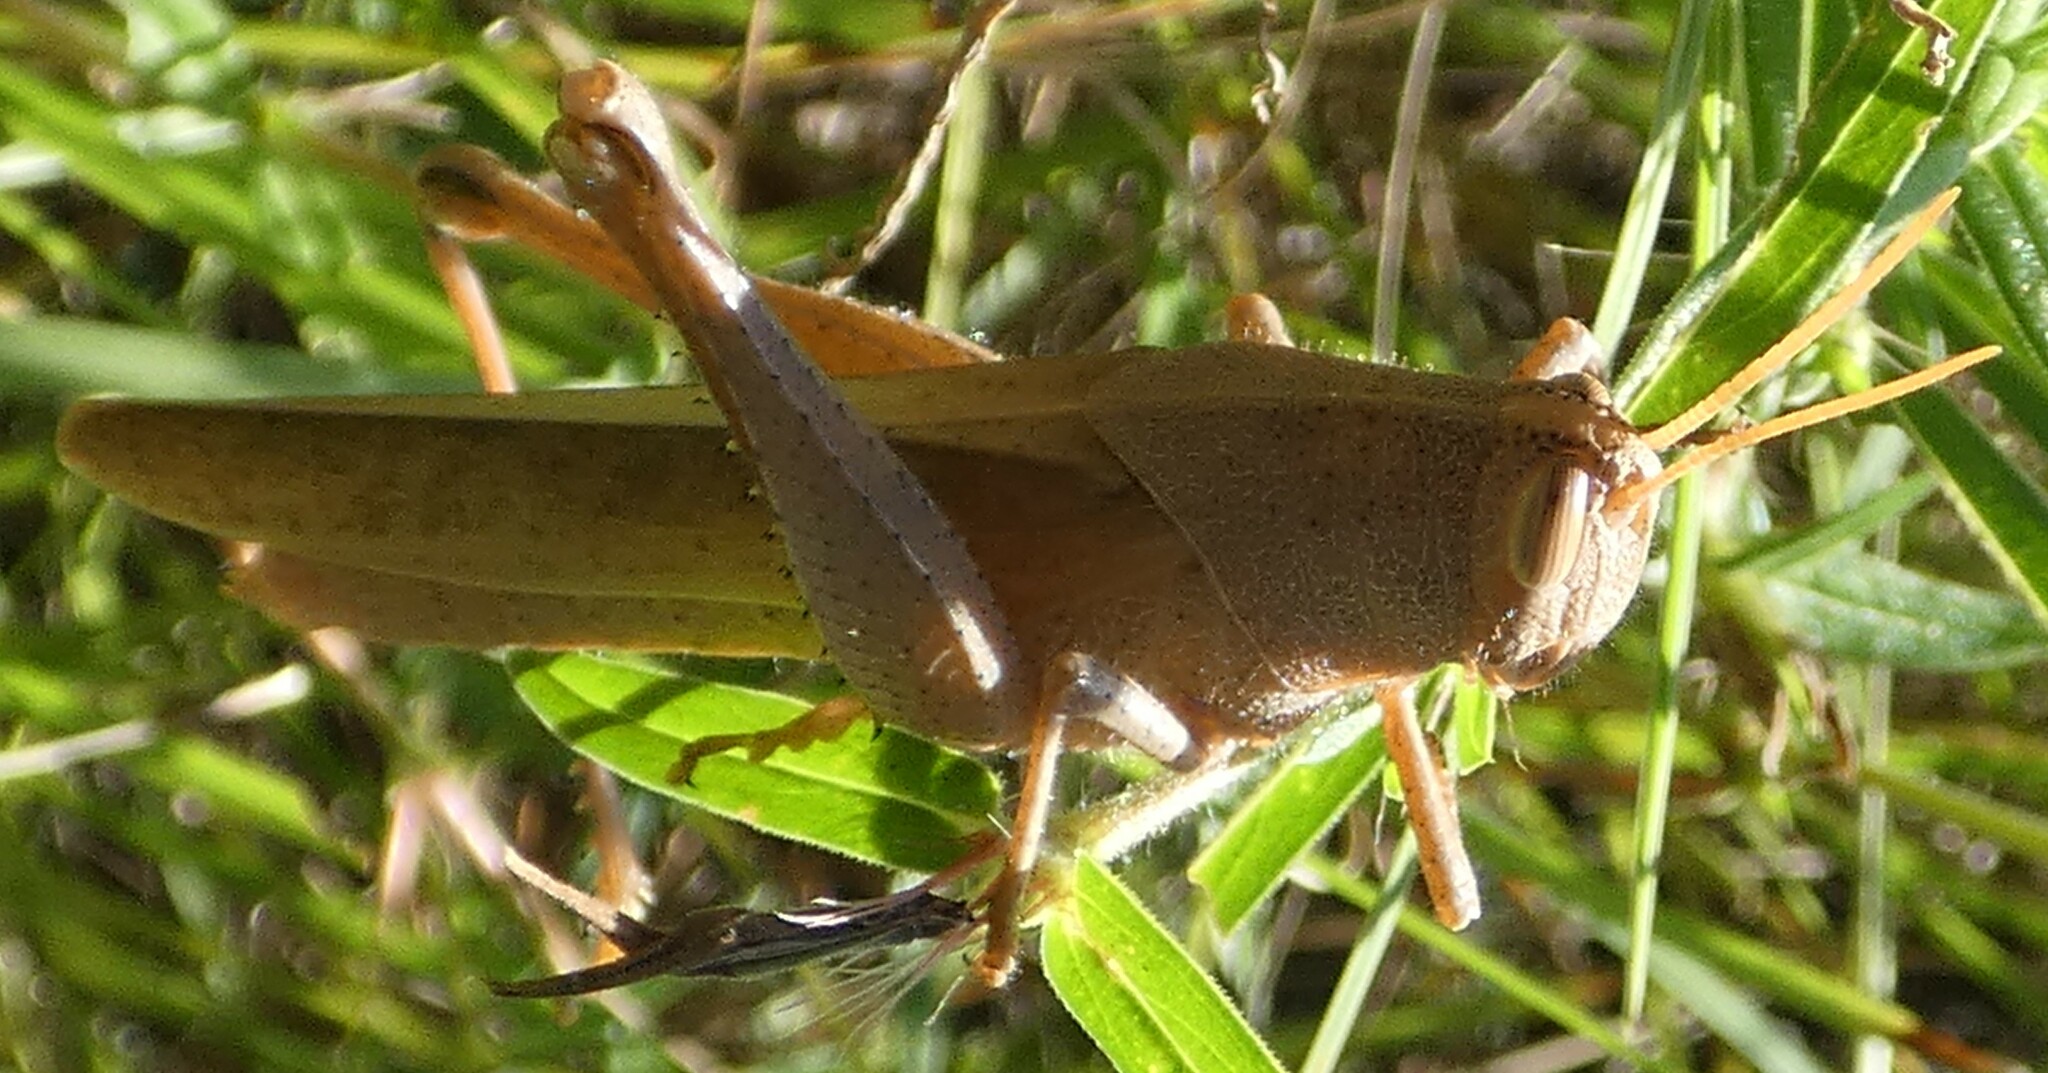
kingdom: Animalia
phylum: Arthropoda
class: Insecta
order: Orthoptera
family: Acrididae
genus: Schistocerca
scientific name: Schistocerca damnifica
